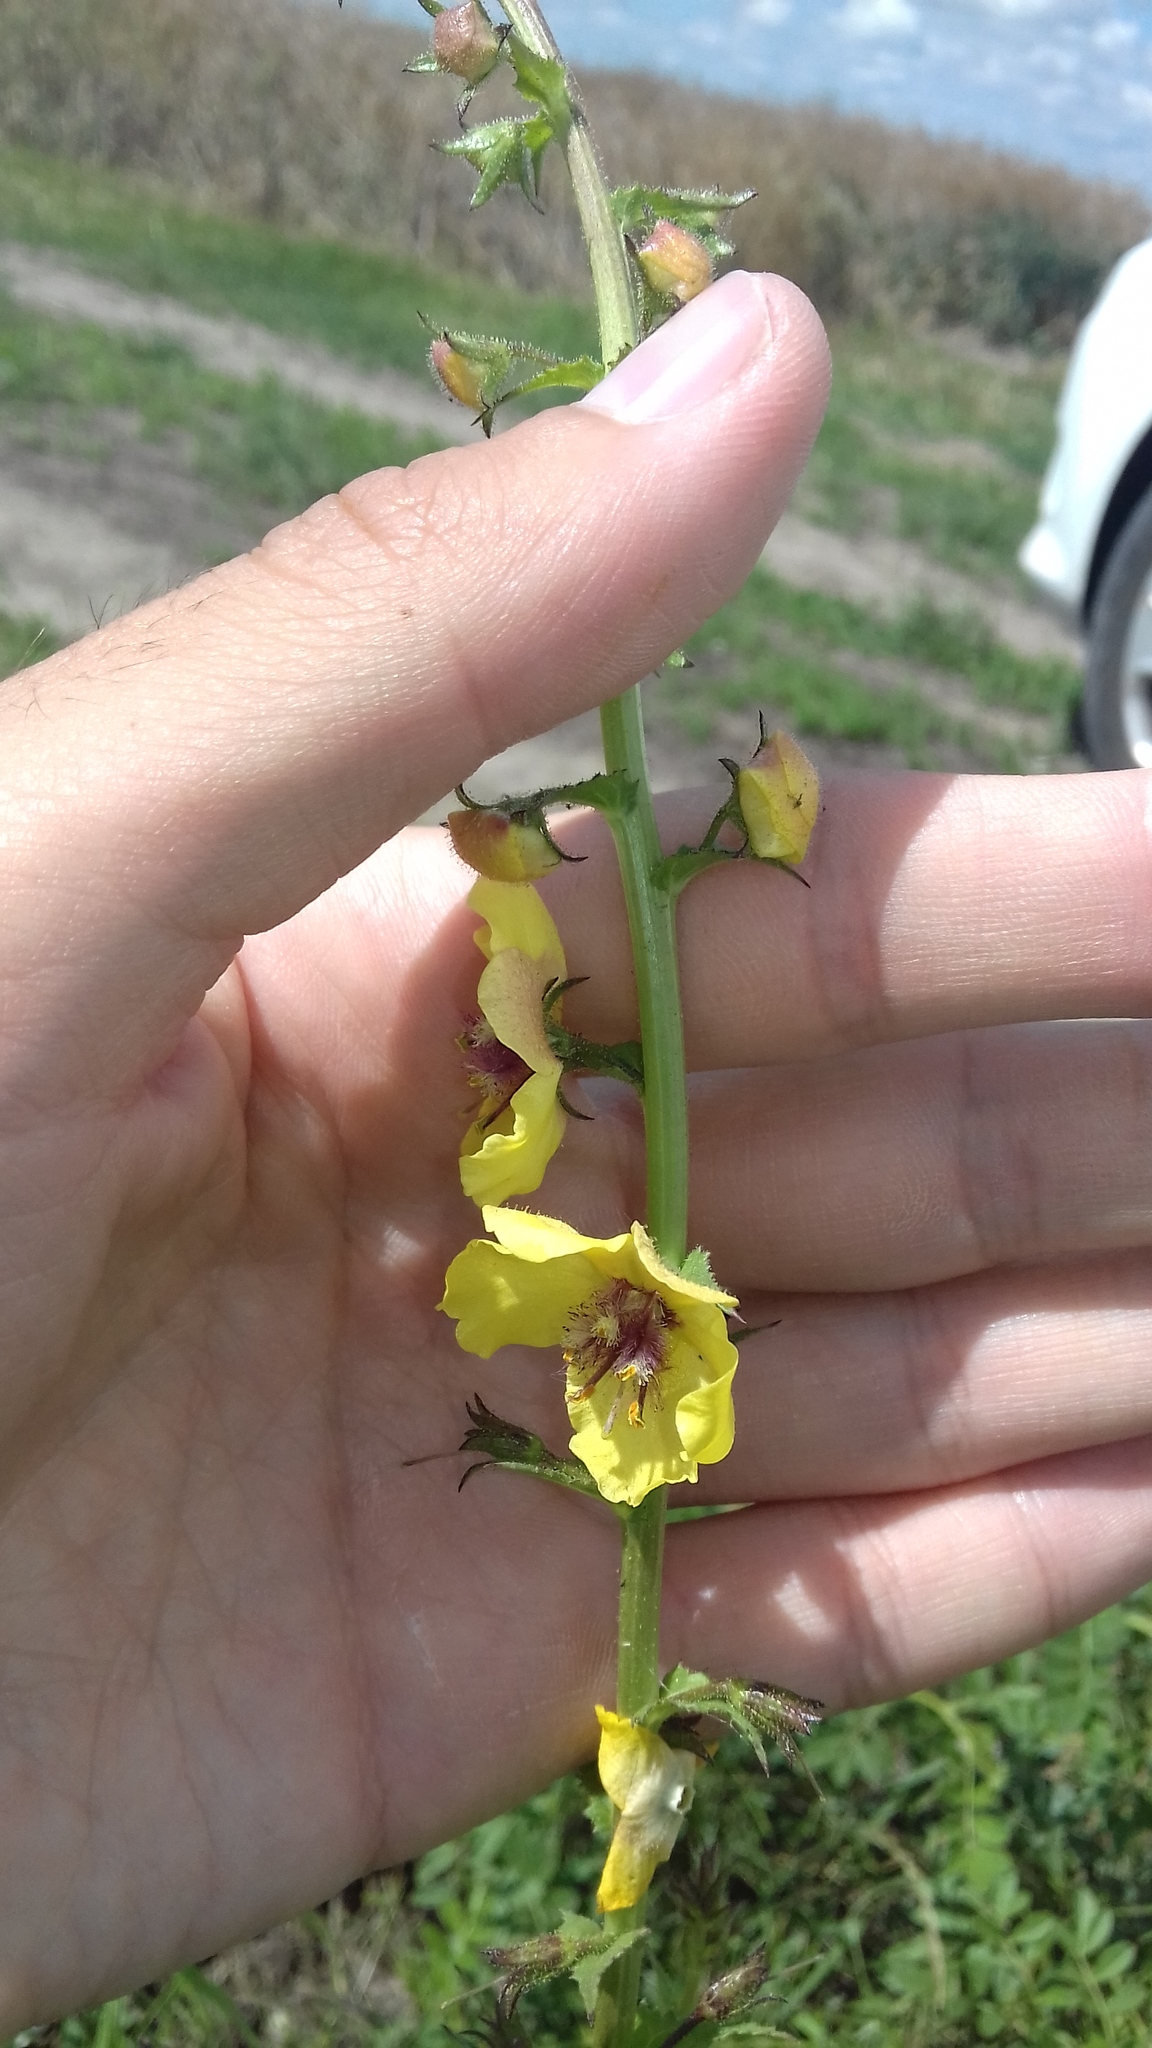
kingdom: Plantae
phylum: Tracheophyta
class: Magnoliopsida
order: Lamiales
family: Scrophulariaceae
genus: Verbascum
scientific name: Verbascum blattaria
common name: Moth mullein
